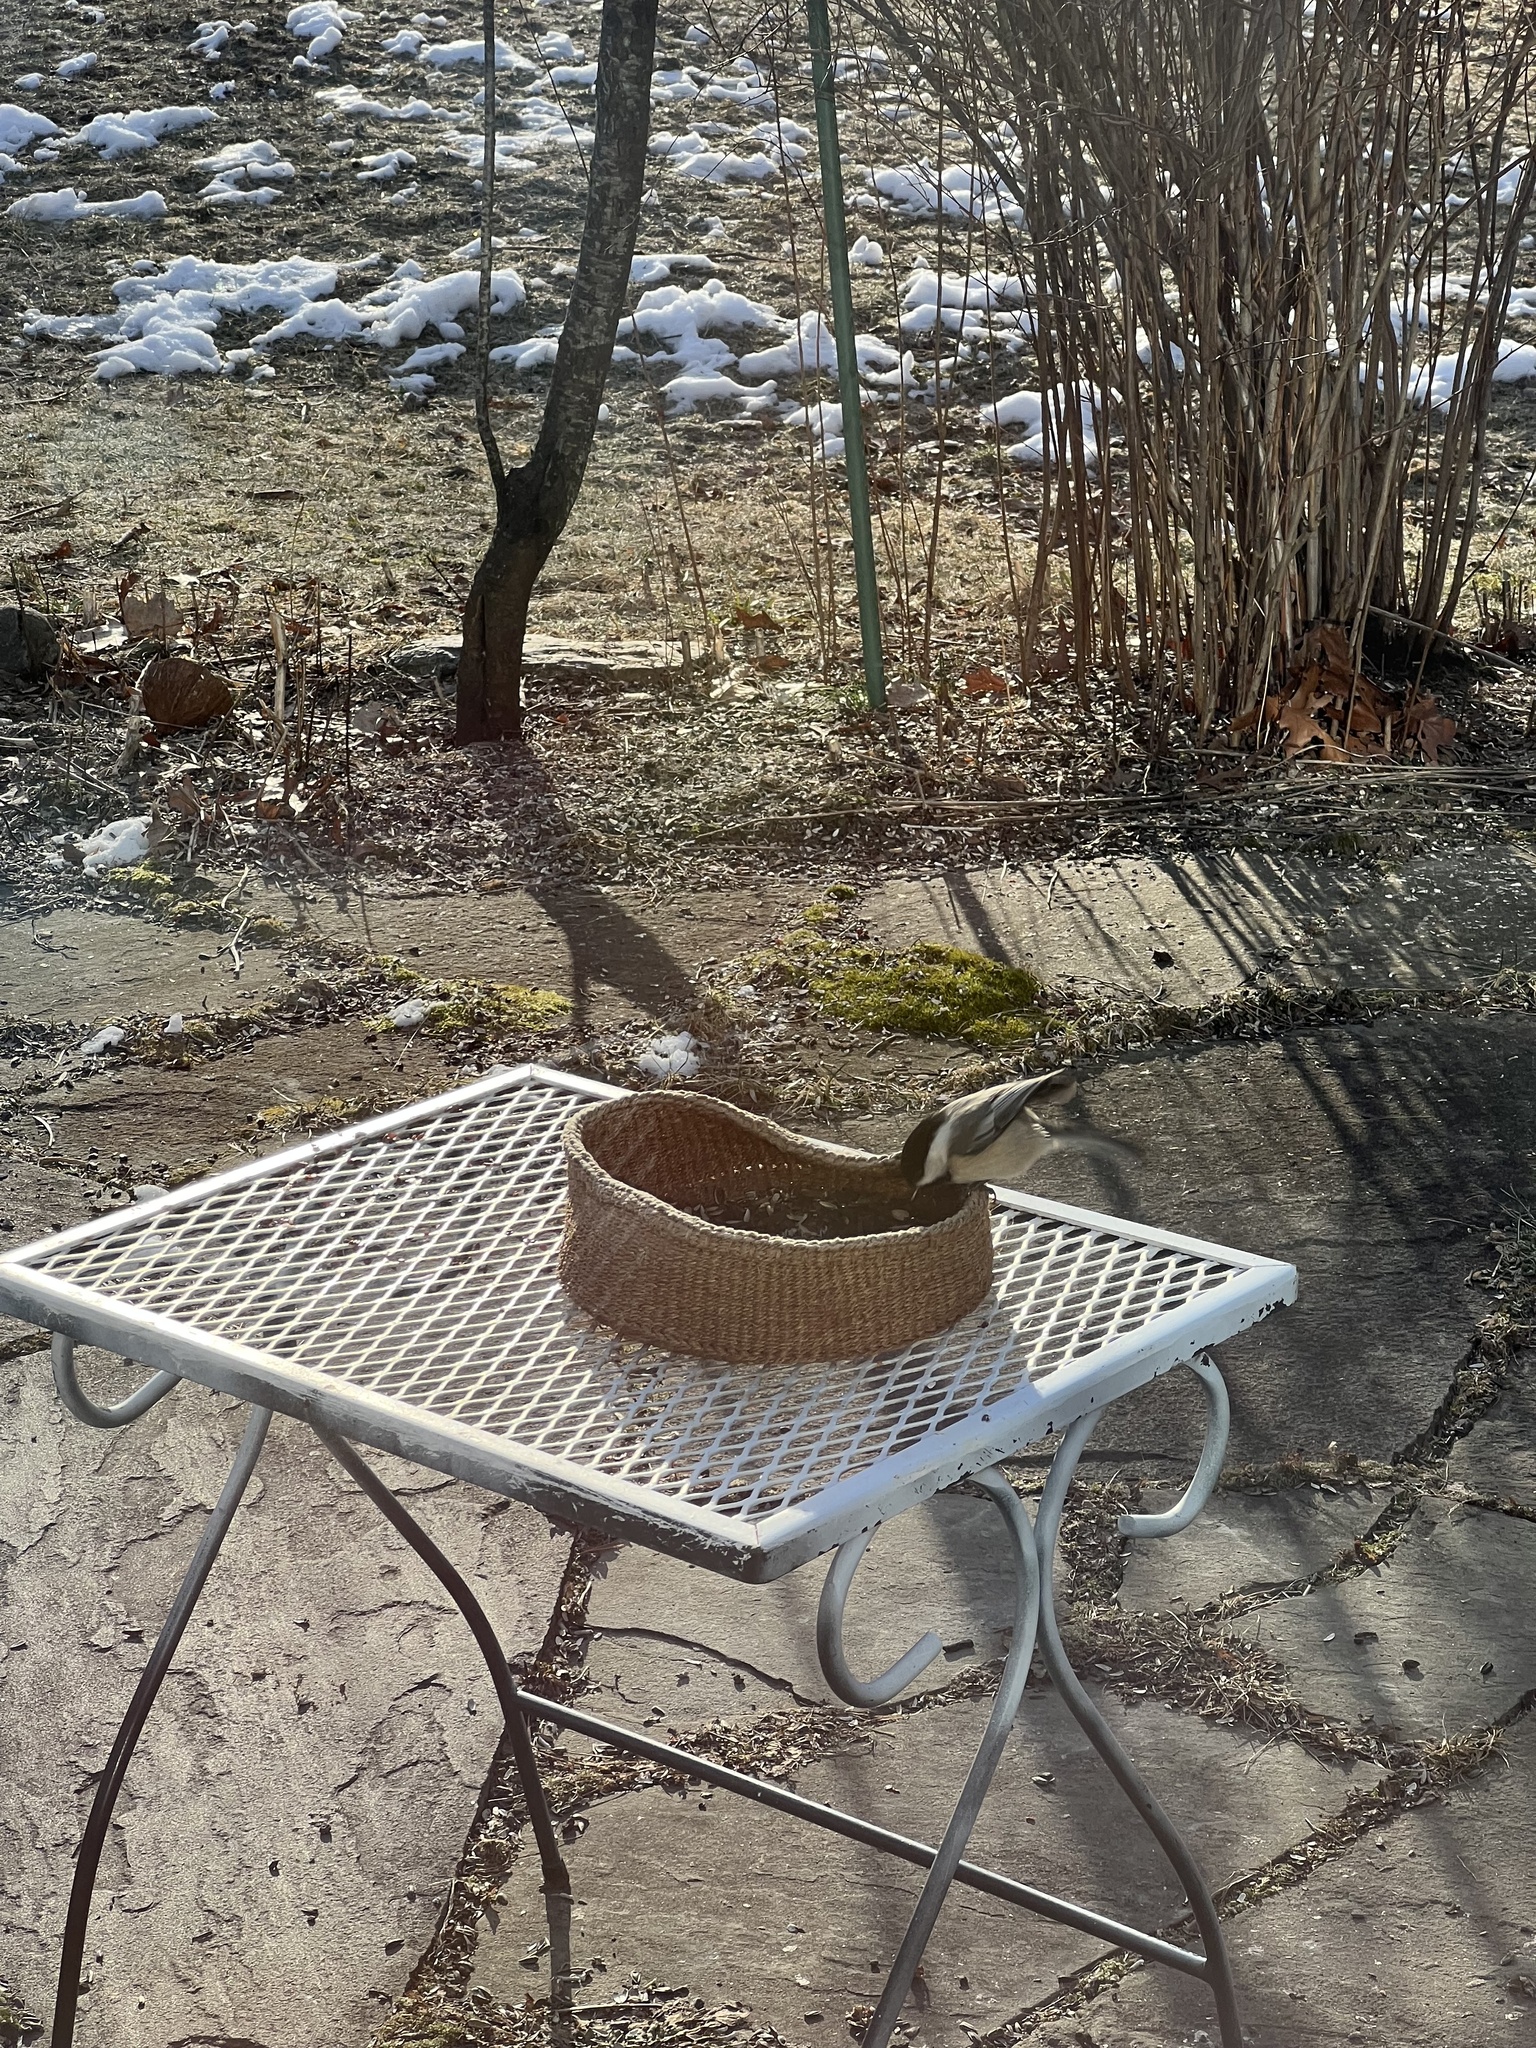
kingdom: Animalia
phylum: Chordata
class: Aves
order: Passeriformes
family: Paridae
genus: Poecile
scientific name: Poecile atricapillus
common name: Black-capped chickadee
